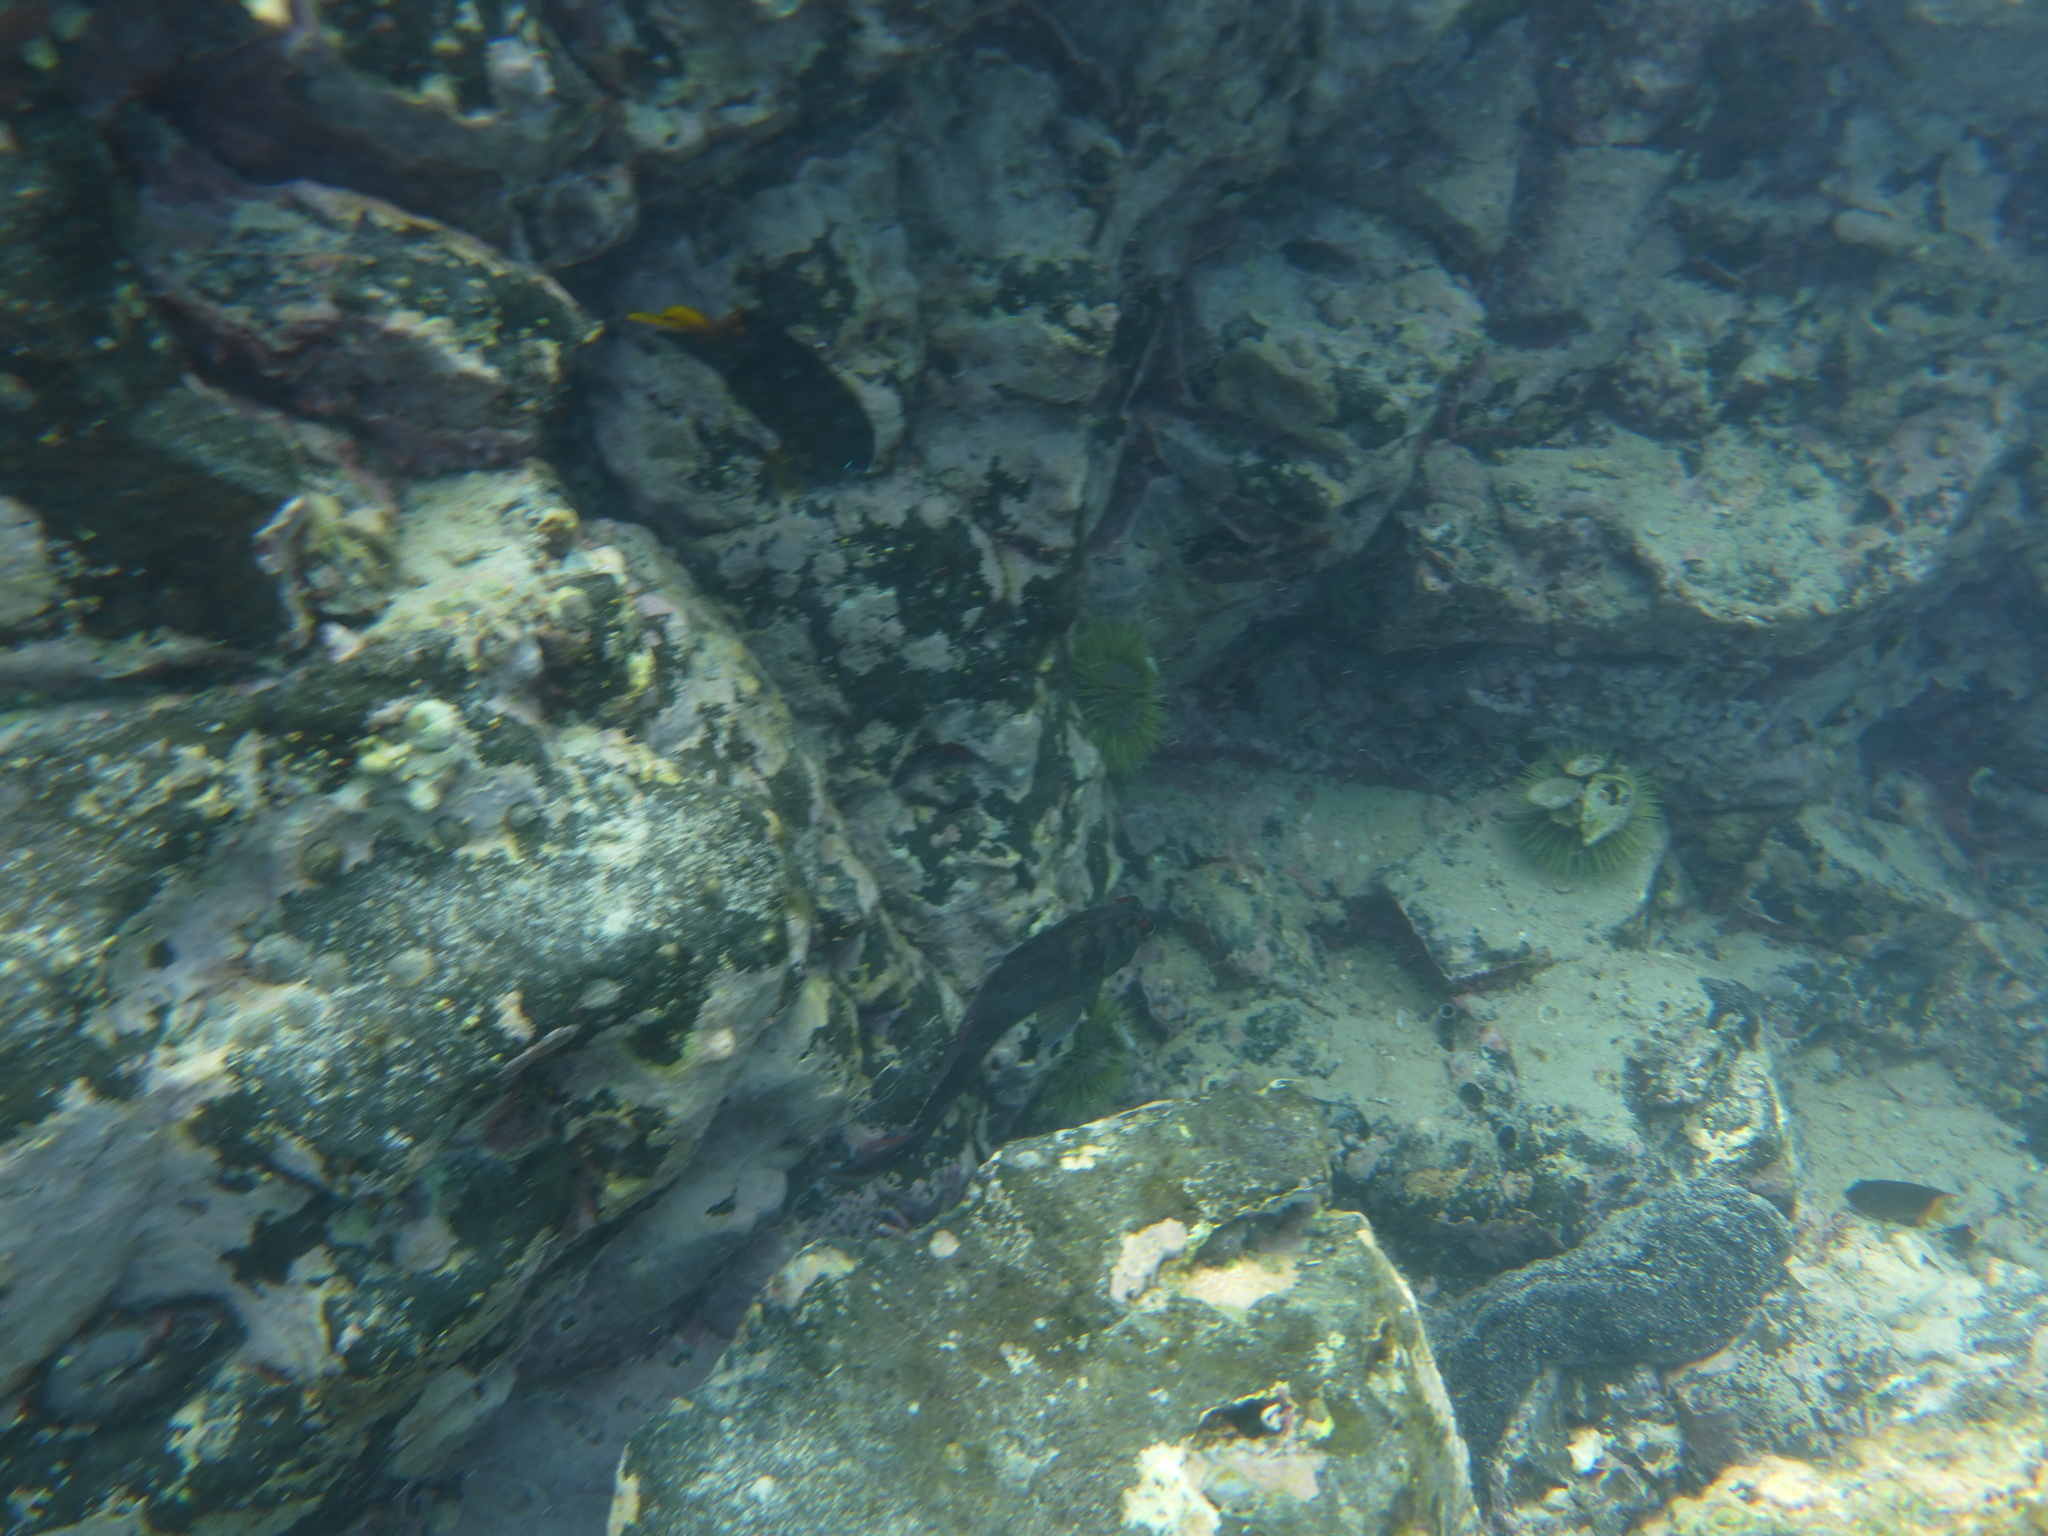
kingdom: Animalia
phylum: Chordata
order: Perciformes
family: Blenniidae
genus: Ophioblennius
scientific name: Ophioblennius steindachneri
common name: Panamic fanged blenny
